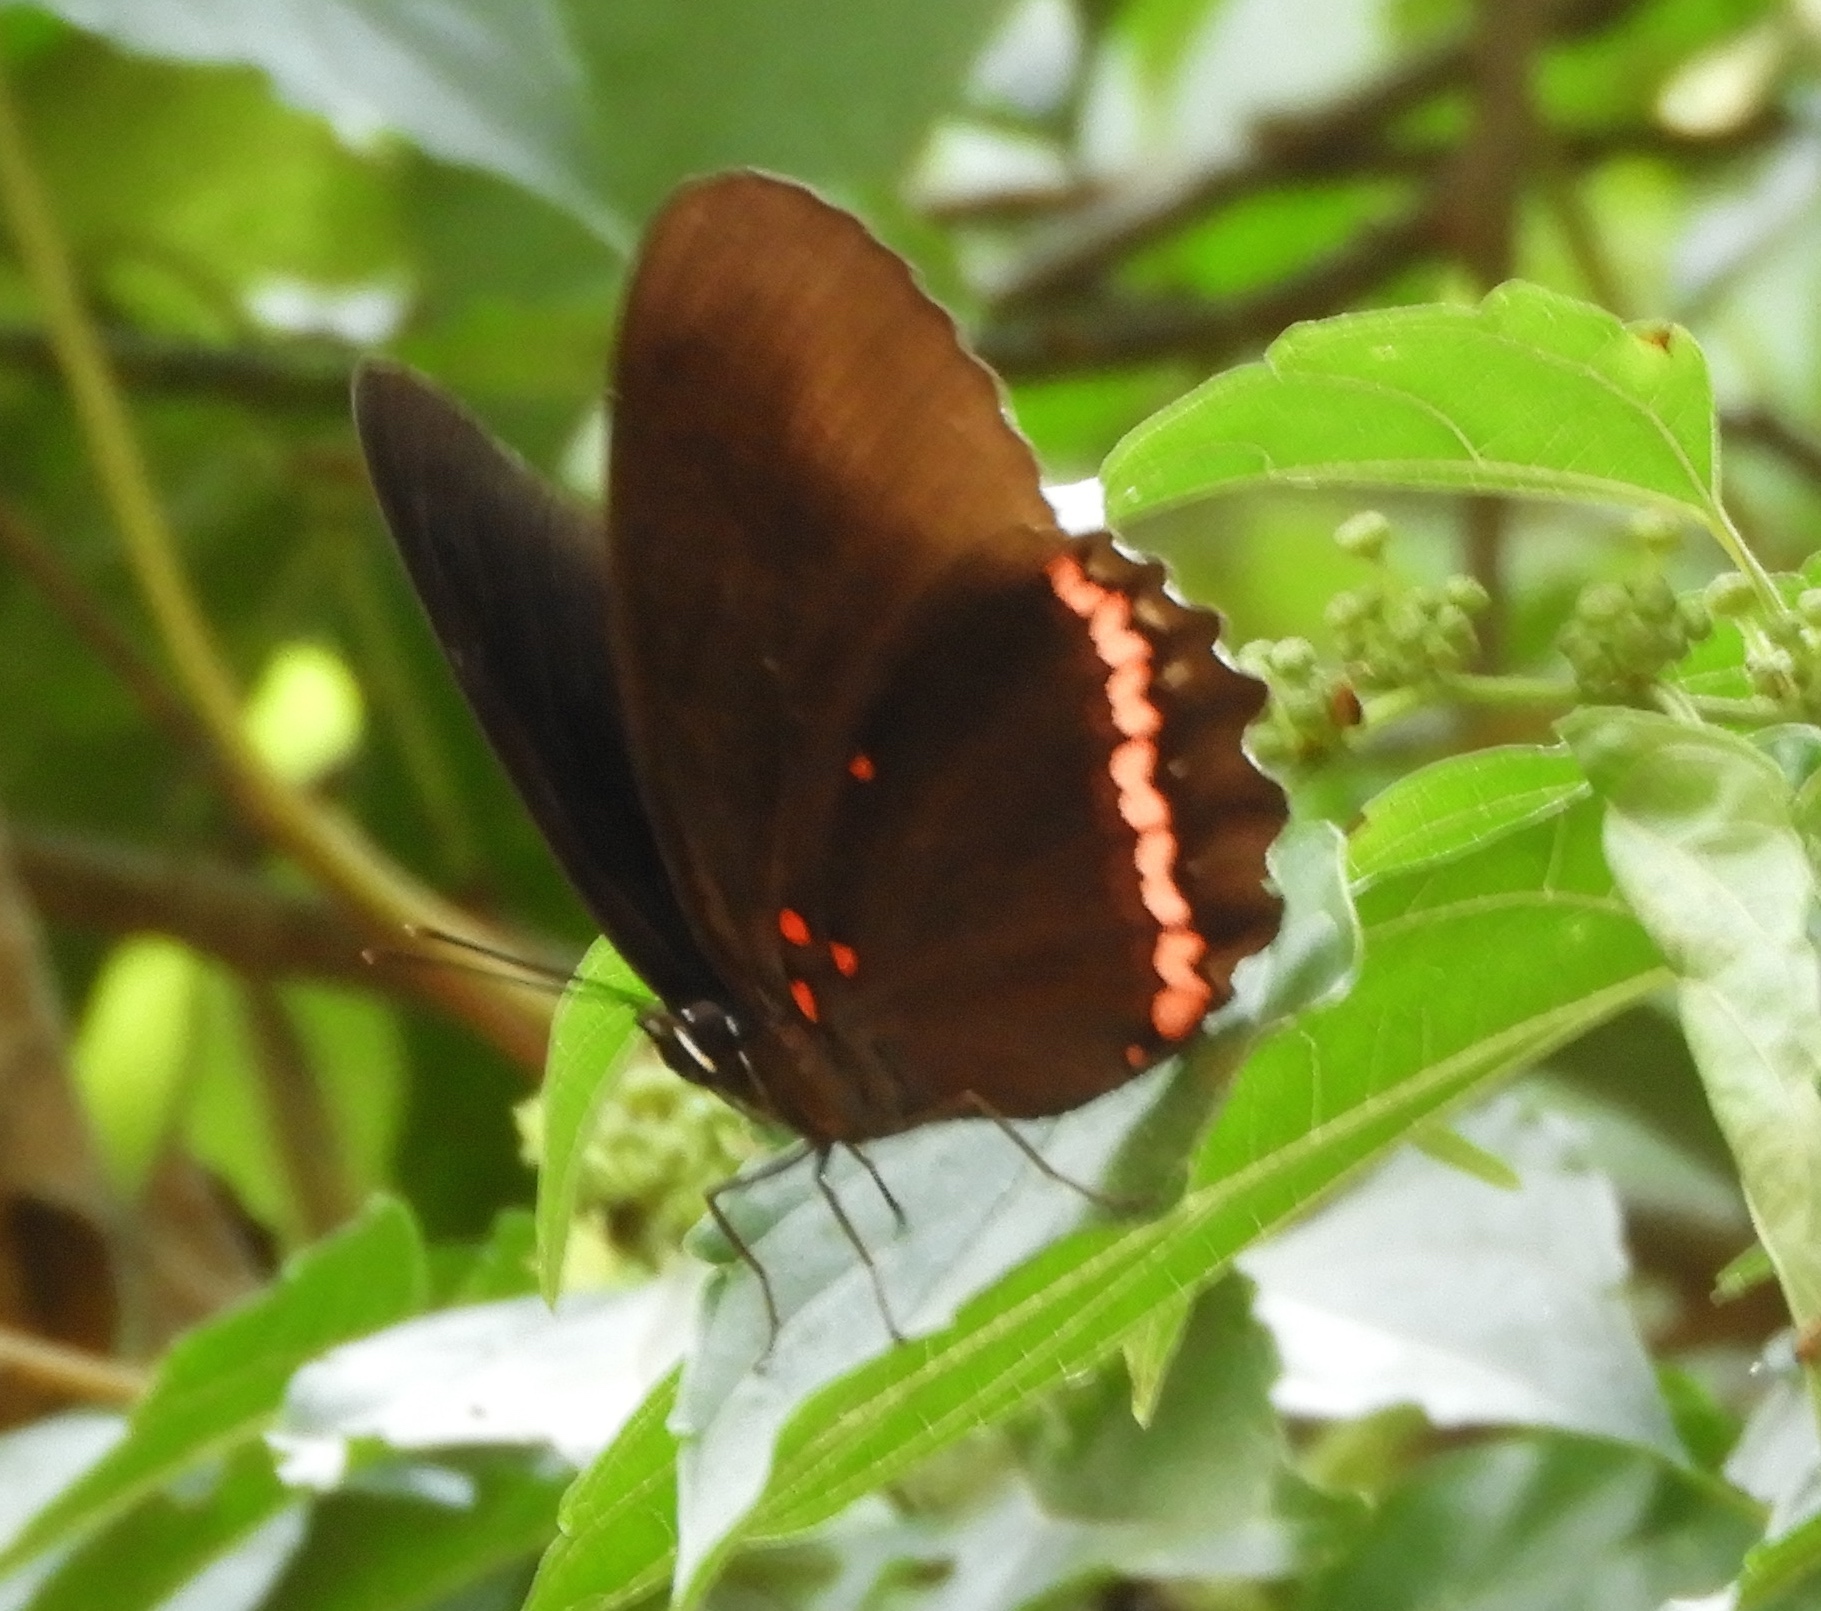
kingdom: Animalia
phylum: Arthropoda
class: Insecta
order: Lepidoptera
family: Nymphalidae
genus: Biblis
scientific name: Biblis aganisa
